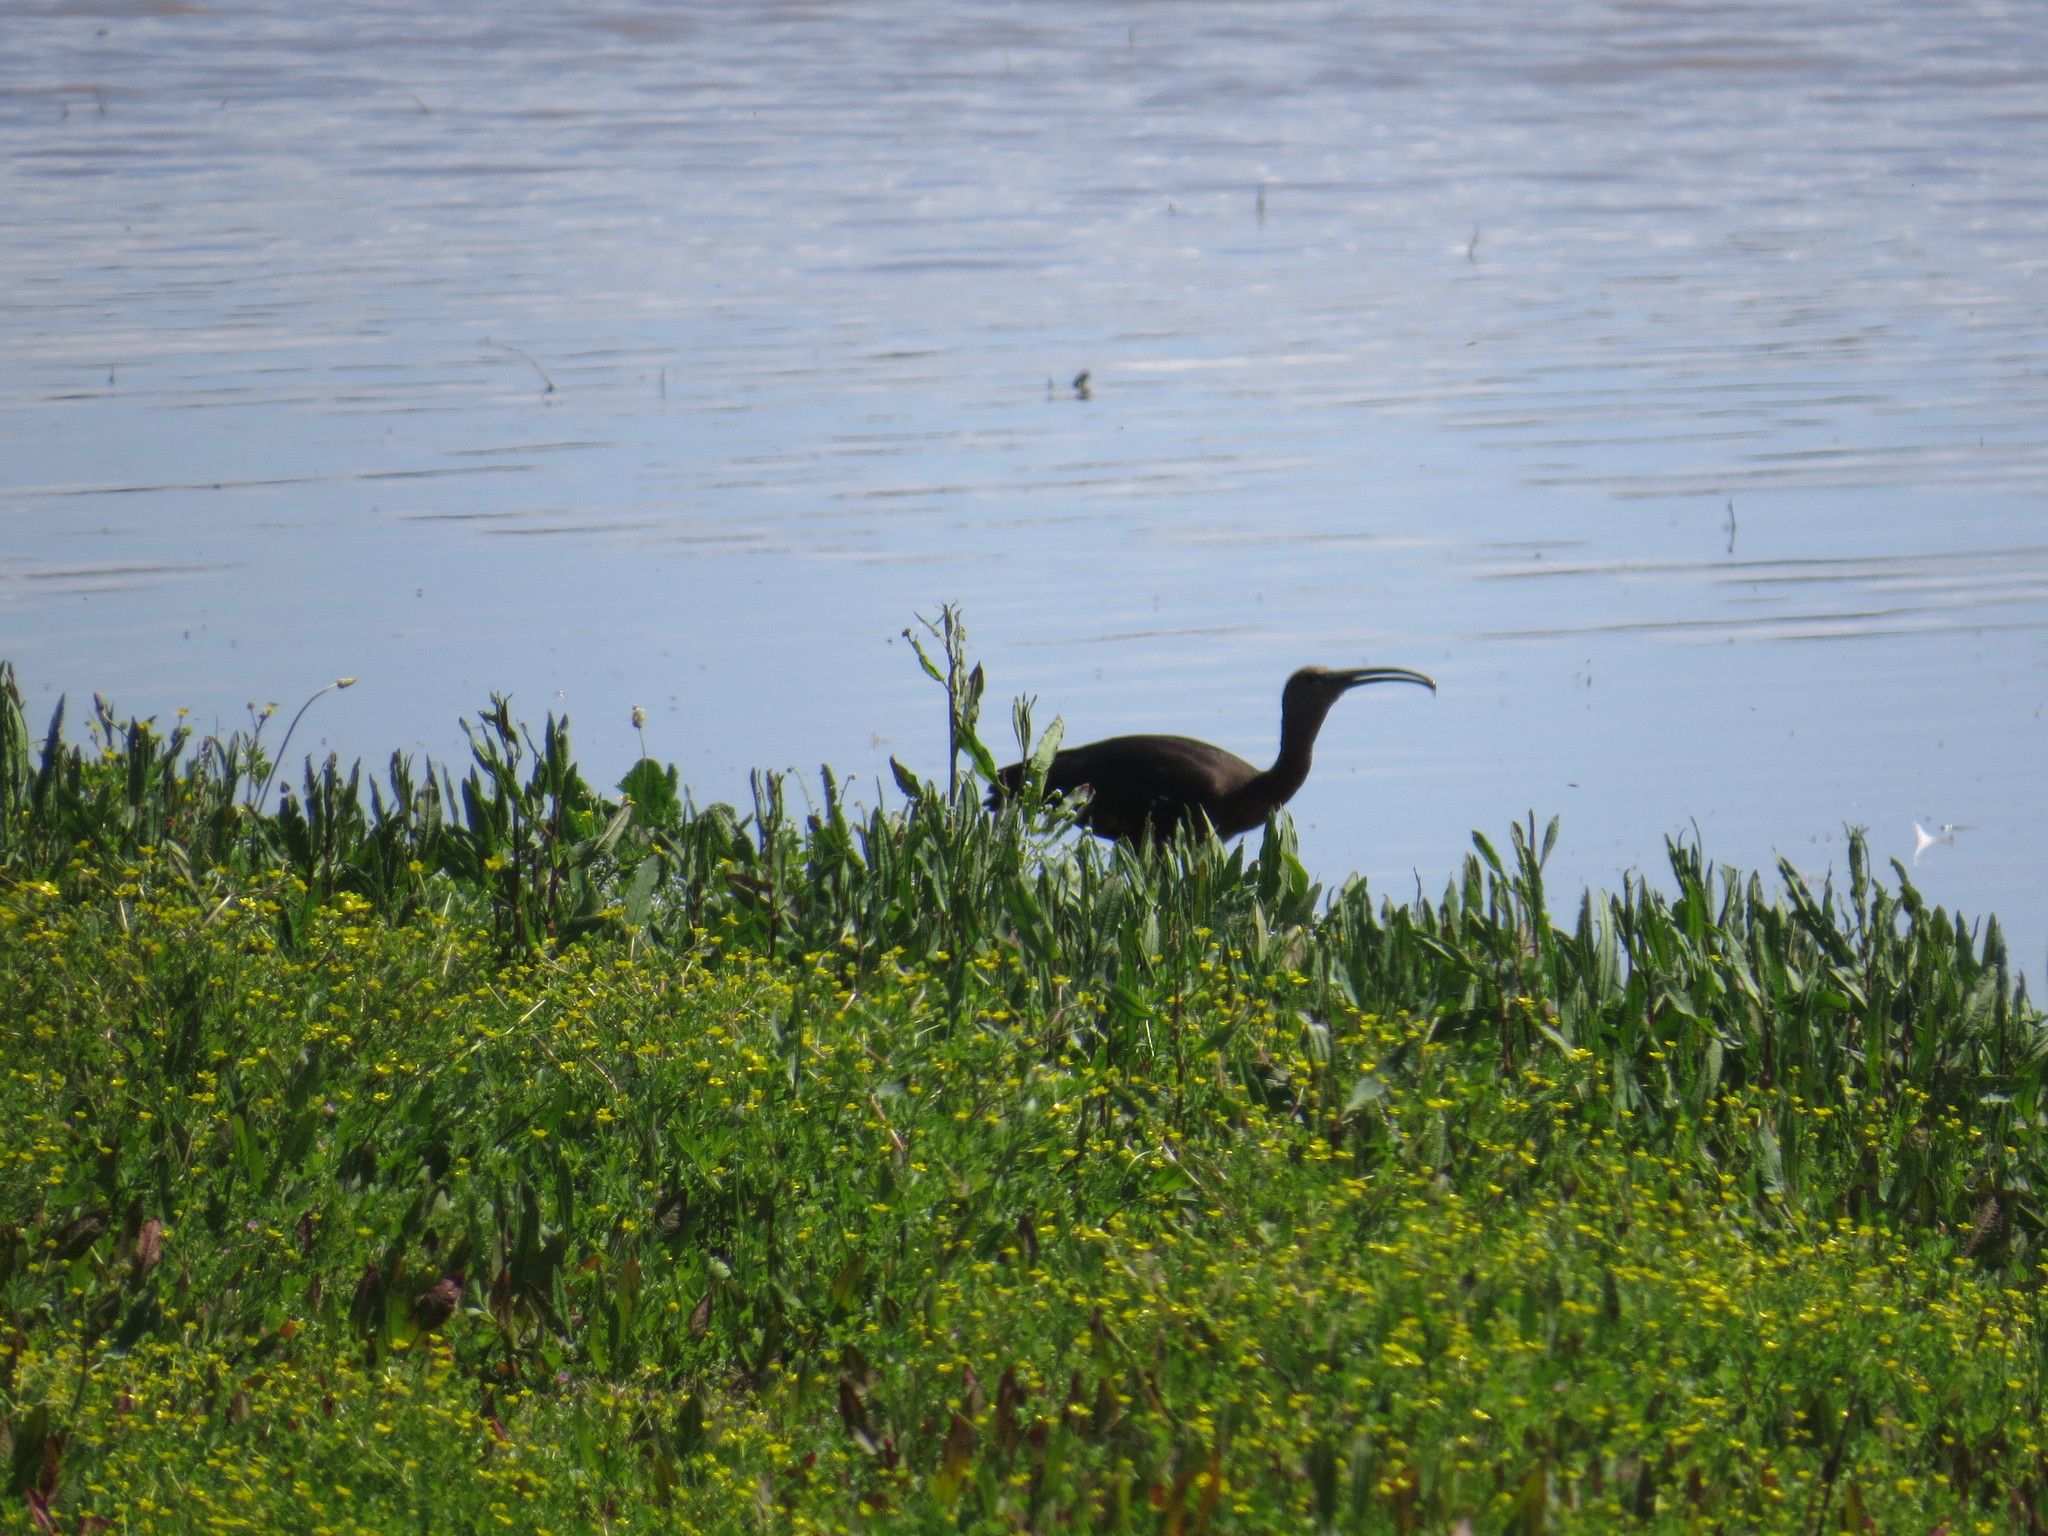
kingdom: Animalia
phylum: Chordata
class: Aves
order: Pelecaniformes
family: Threskiornithidae
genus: Plegadis
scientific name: Plegadis falcinellus
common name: Glossy ibis
